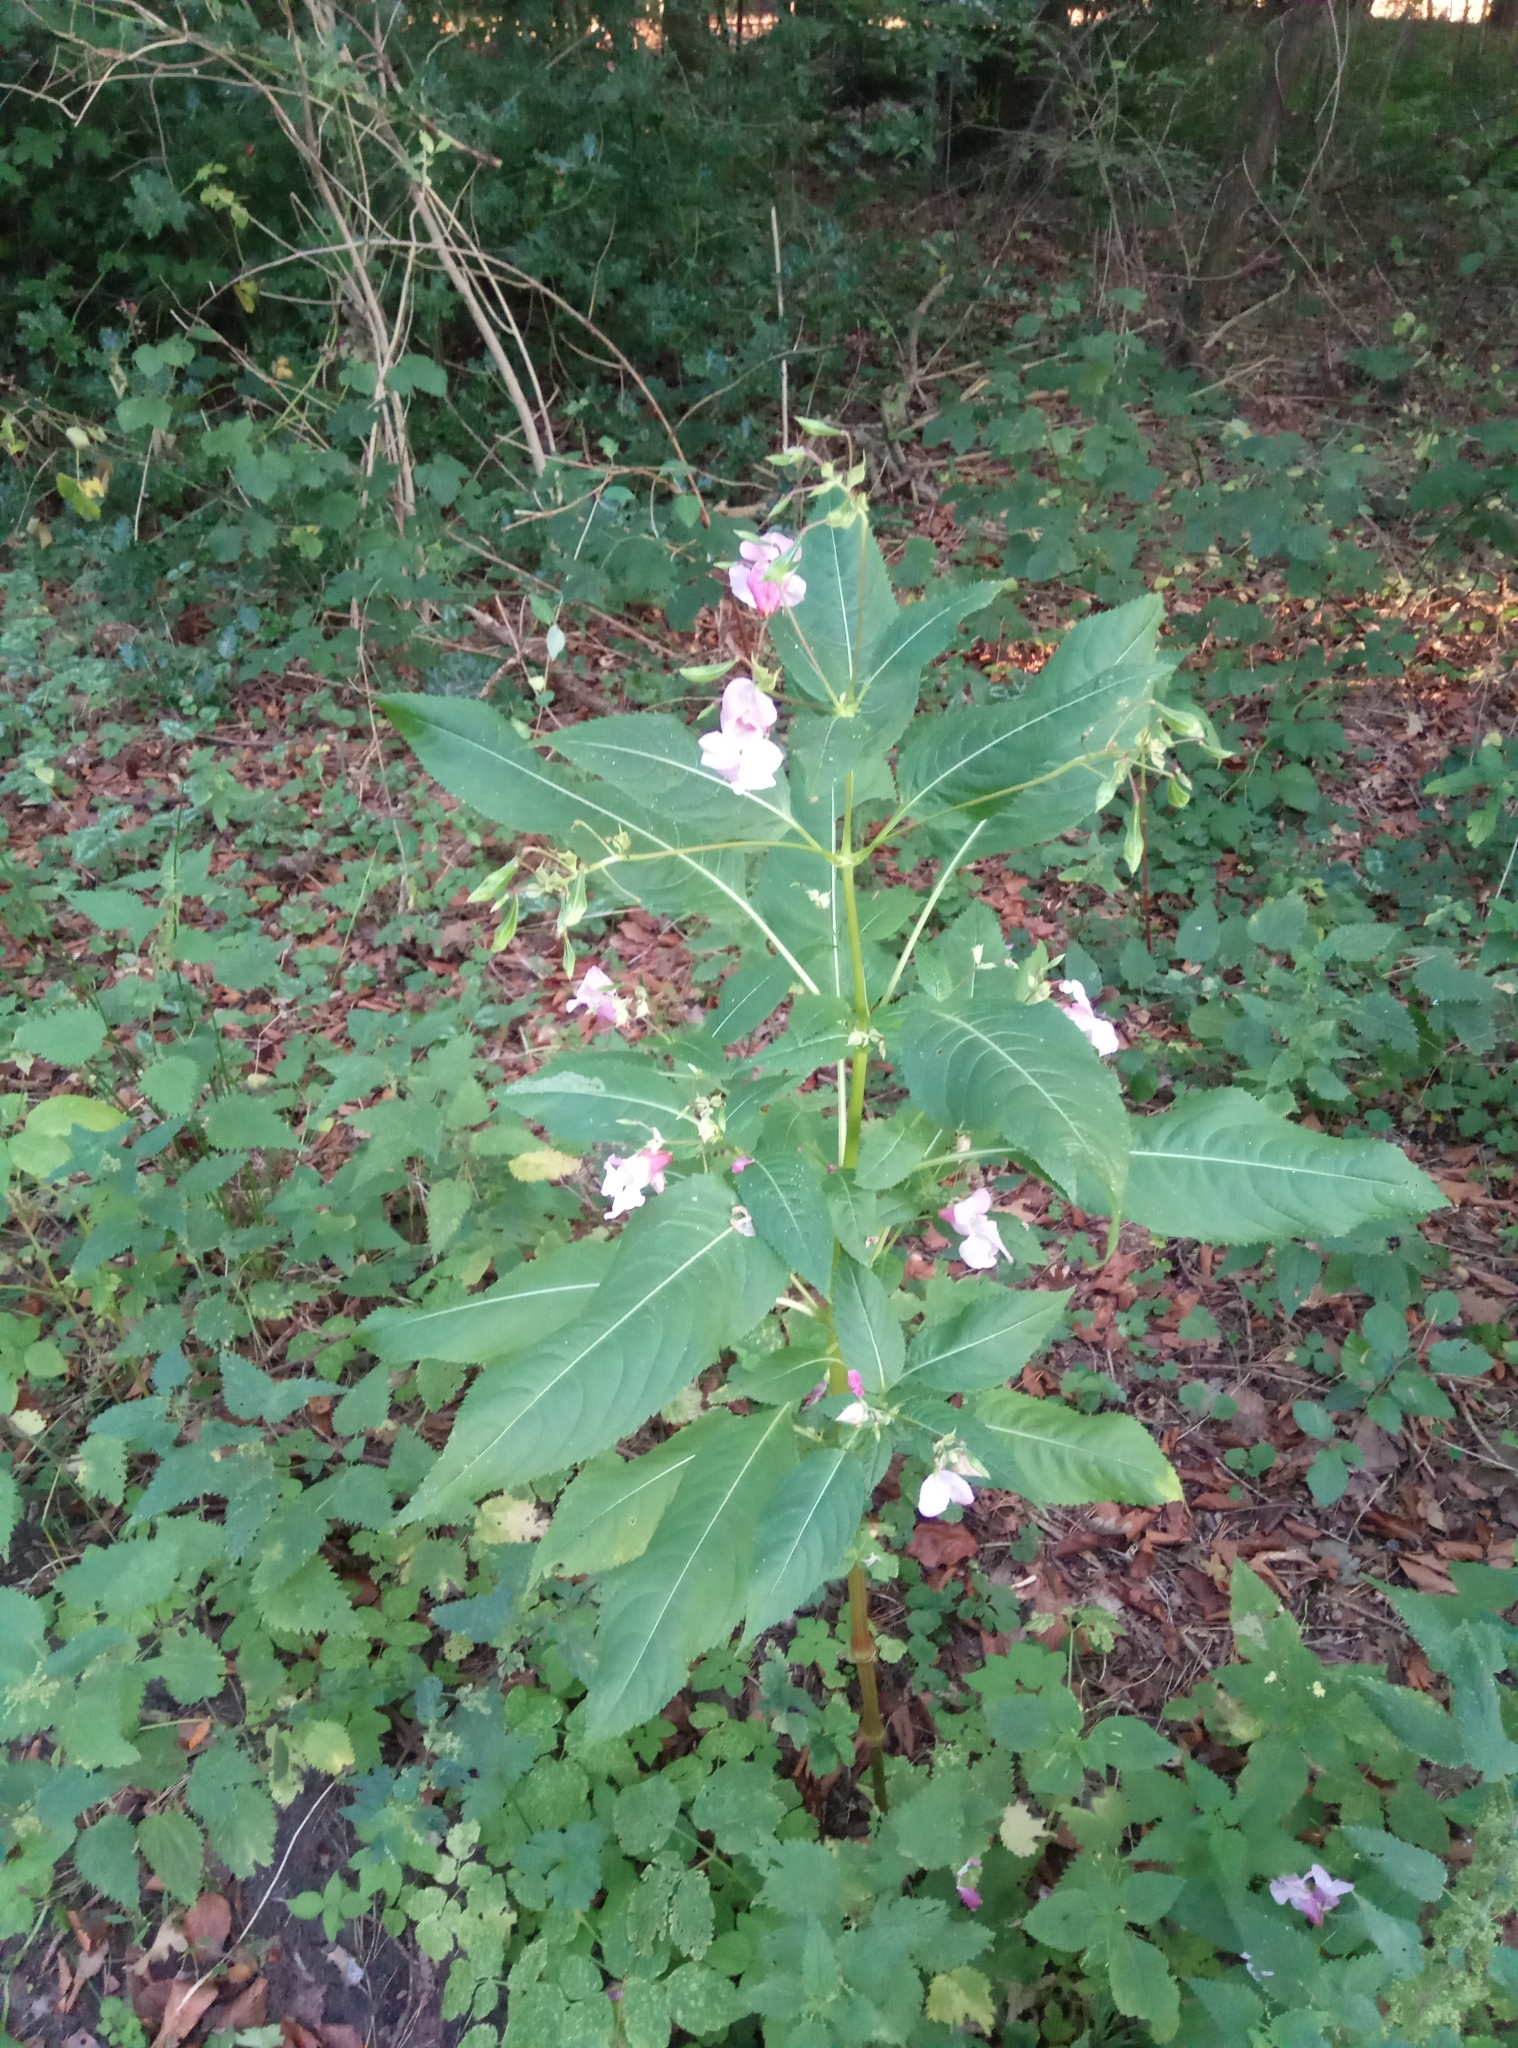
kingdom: Plantae
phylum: Tracheophyta
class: Magnoliopsida
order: Ericales
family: Balsaminaceae
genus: Impatiens
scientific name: Impatiens glandulifera
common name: Himalayan balsam
